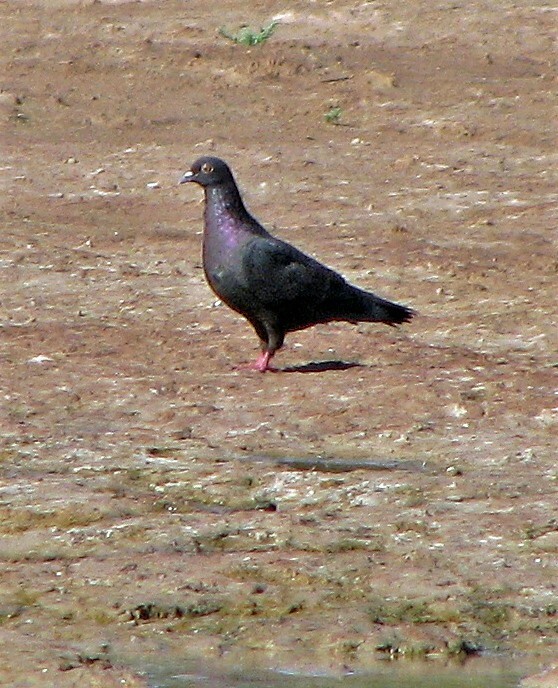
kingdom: Animalia
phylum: Chordata
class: Aves
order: Columbiformes
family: Columbidae
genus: Columba
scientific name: Columba livia
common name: Rock pigeon
